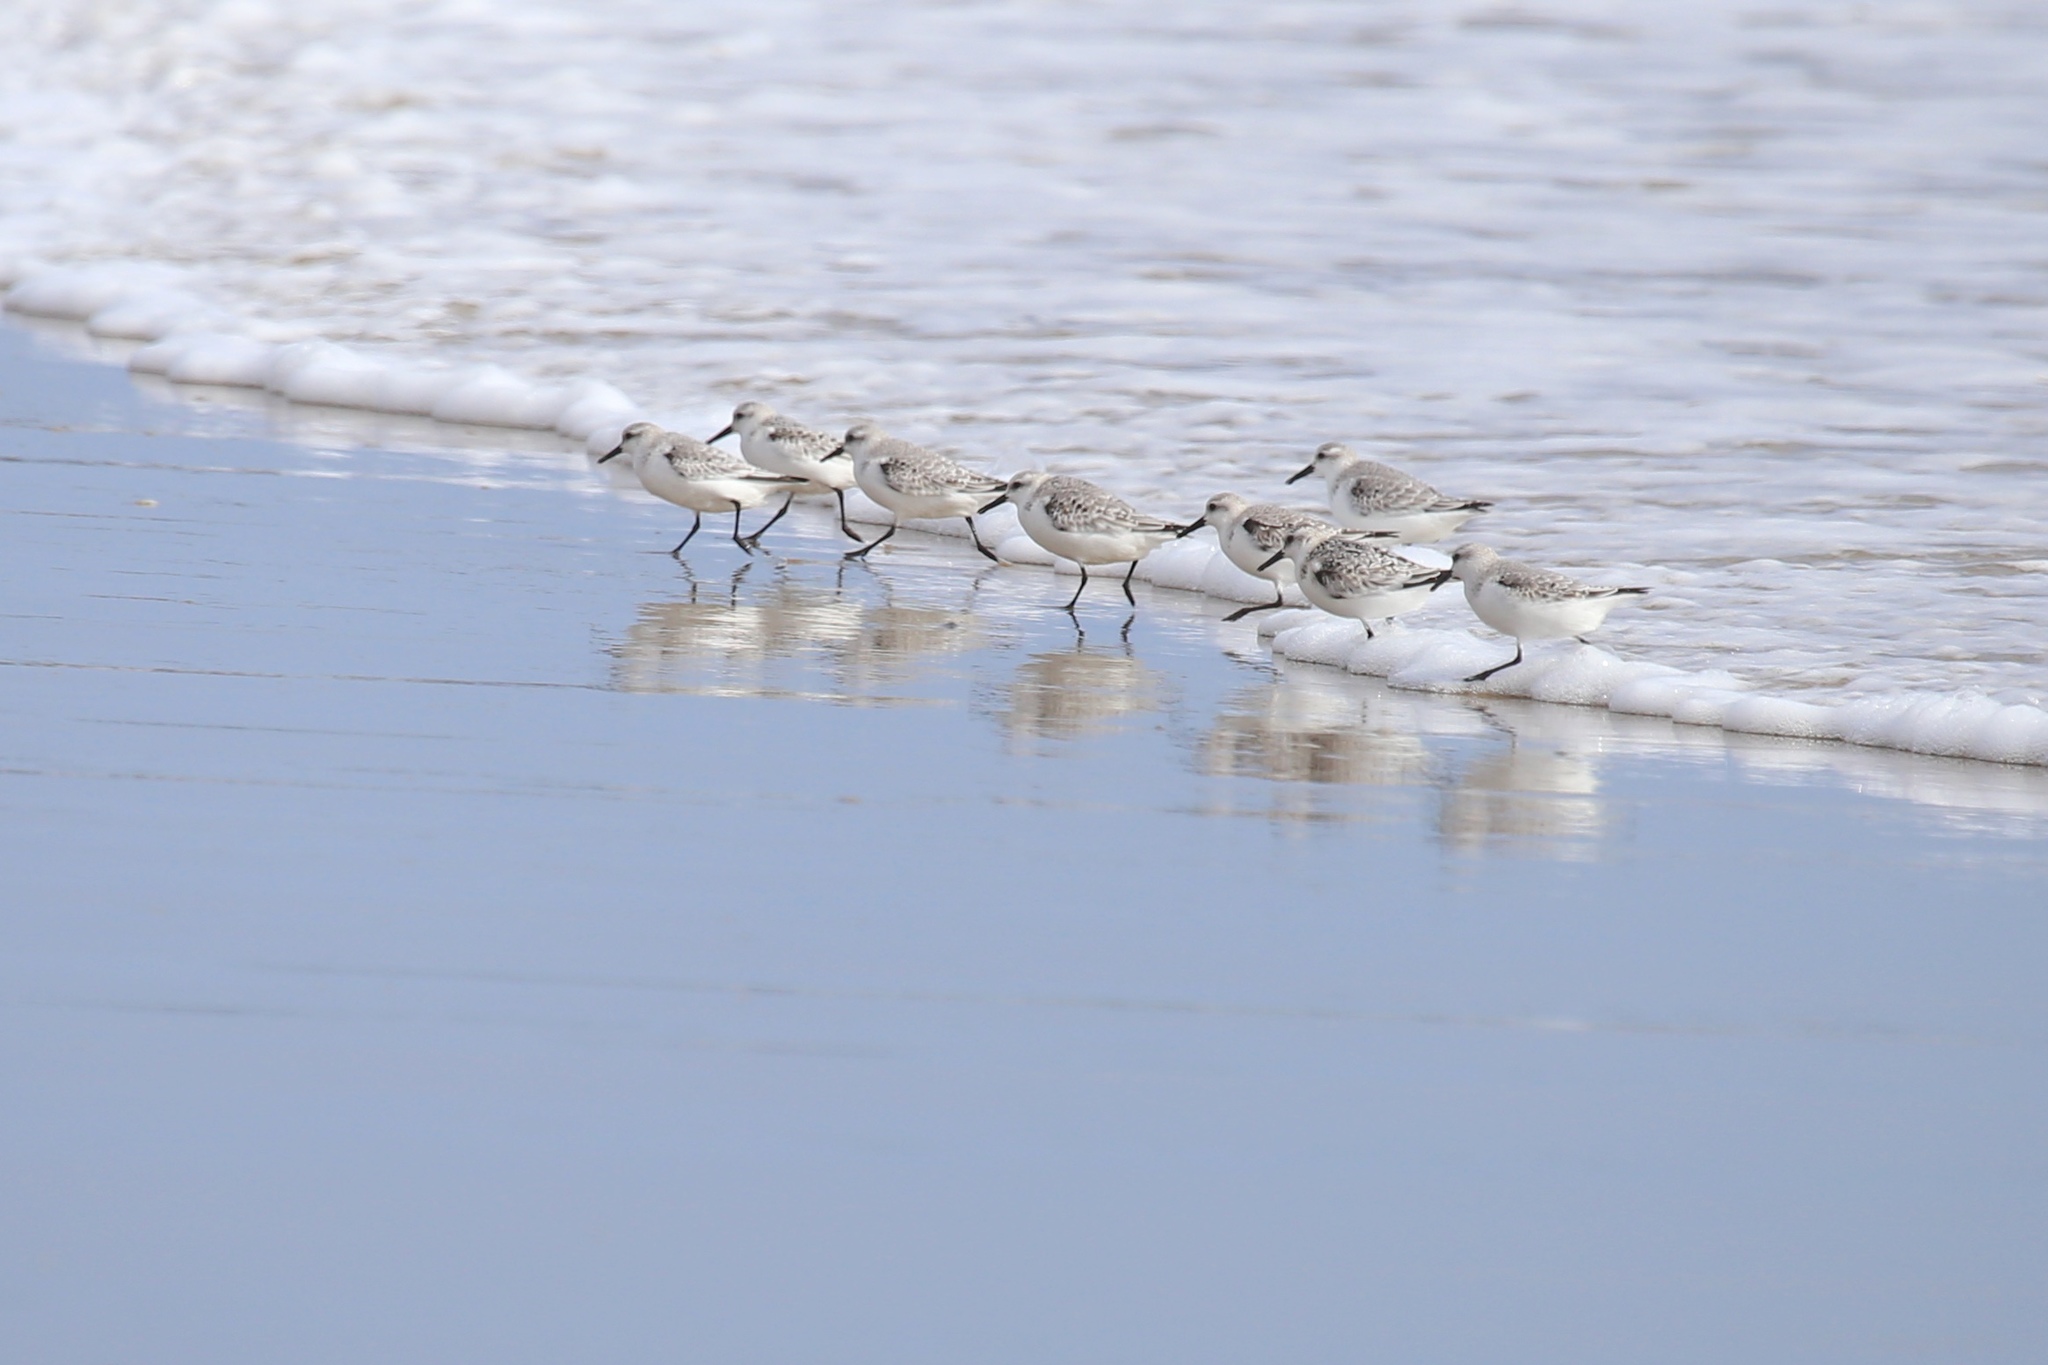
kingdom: Animalia
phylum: Chordata
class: Aves
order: Charadriiformes
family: Scolopacidae
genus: Calidris
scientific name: Calidris alba
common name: Sanderling
